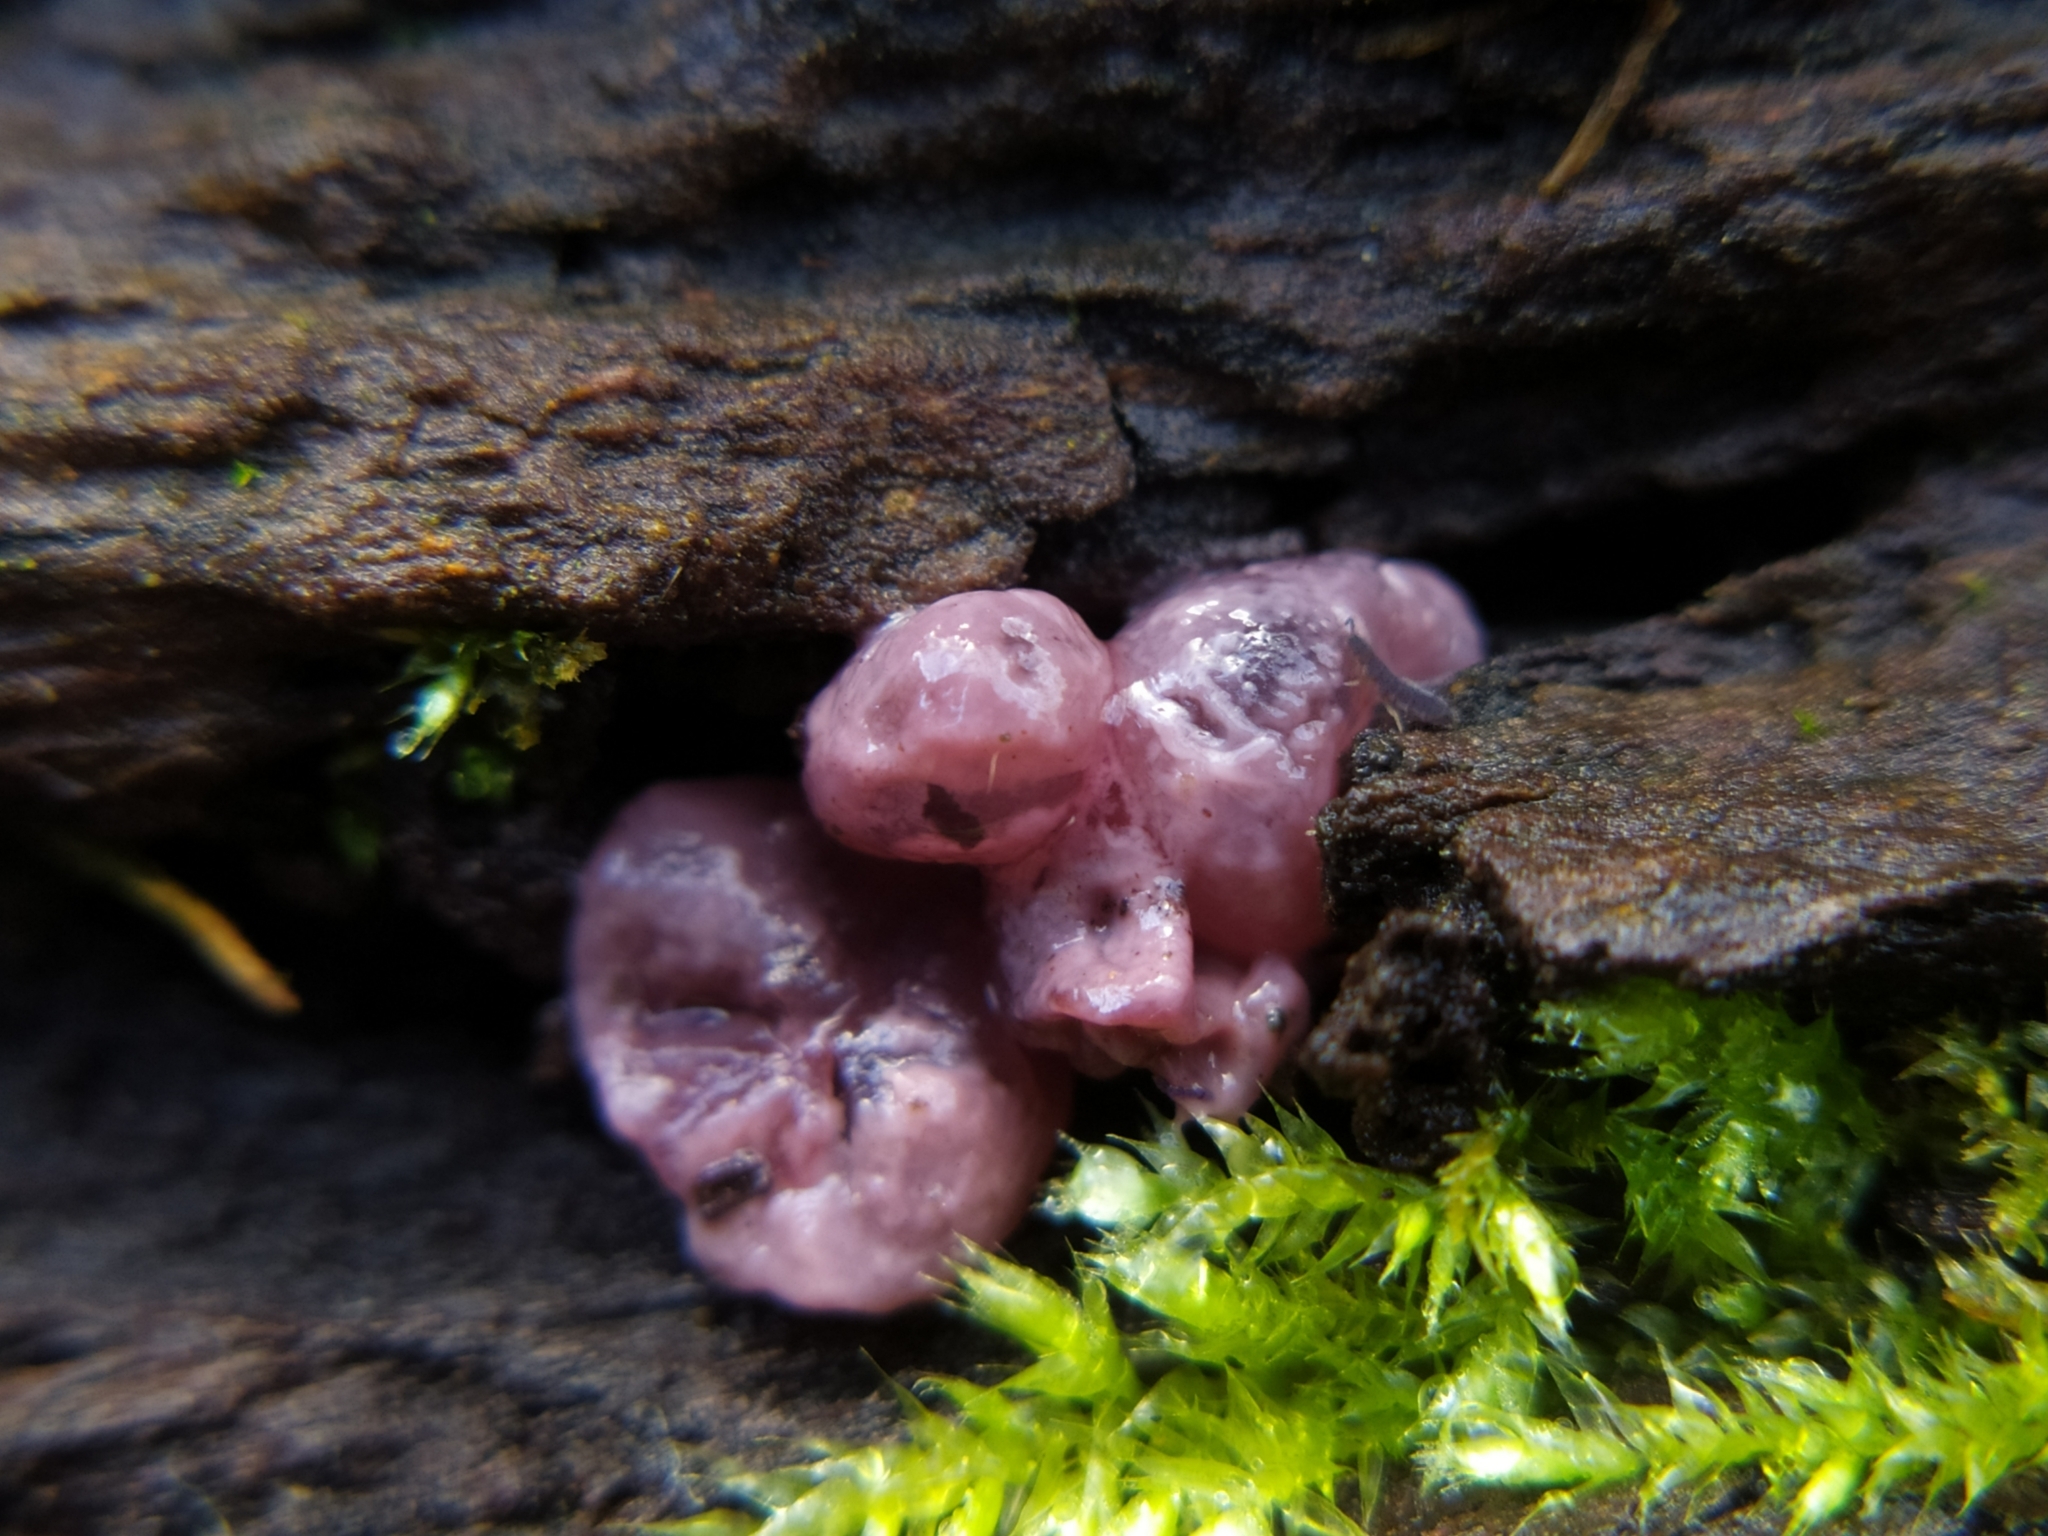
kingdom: Fungi
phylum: Ascomycota
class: Leotiomycetes
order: Helotiales
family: Gelatinodiscaceae
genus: Ascocoryne
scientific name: Ascocoryne sarcoides
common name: Purple jellydisc
